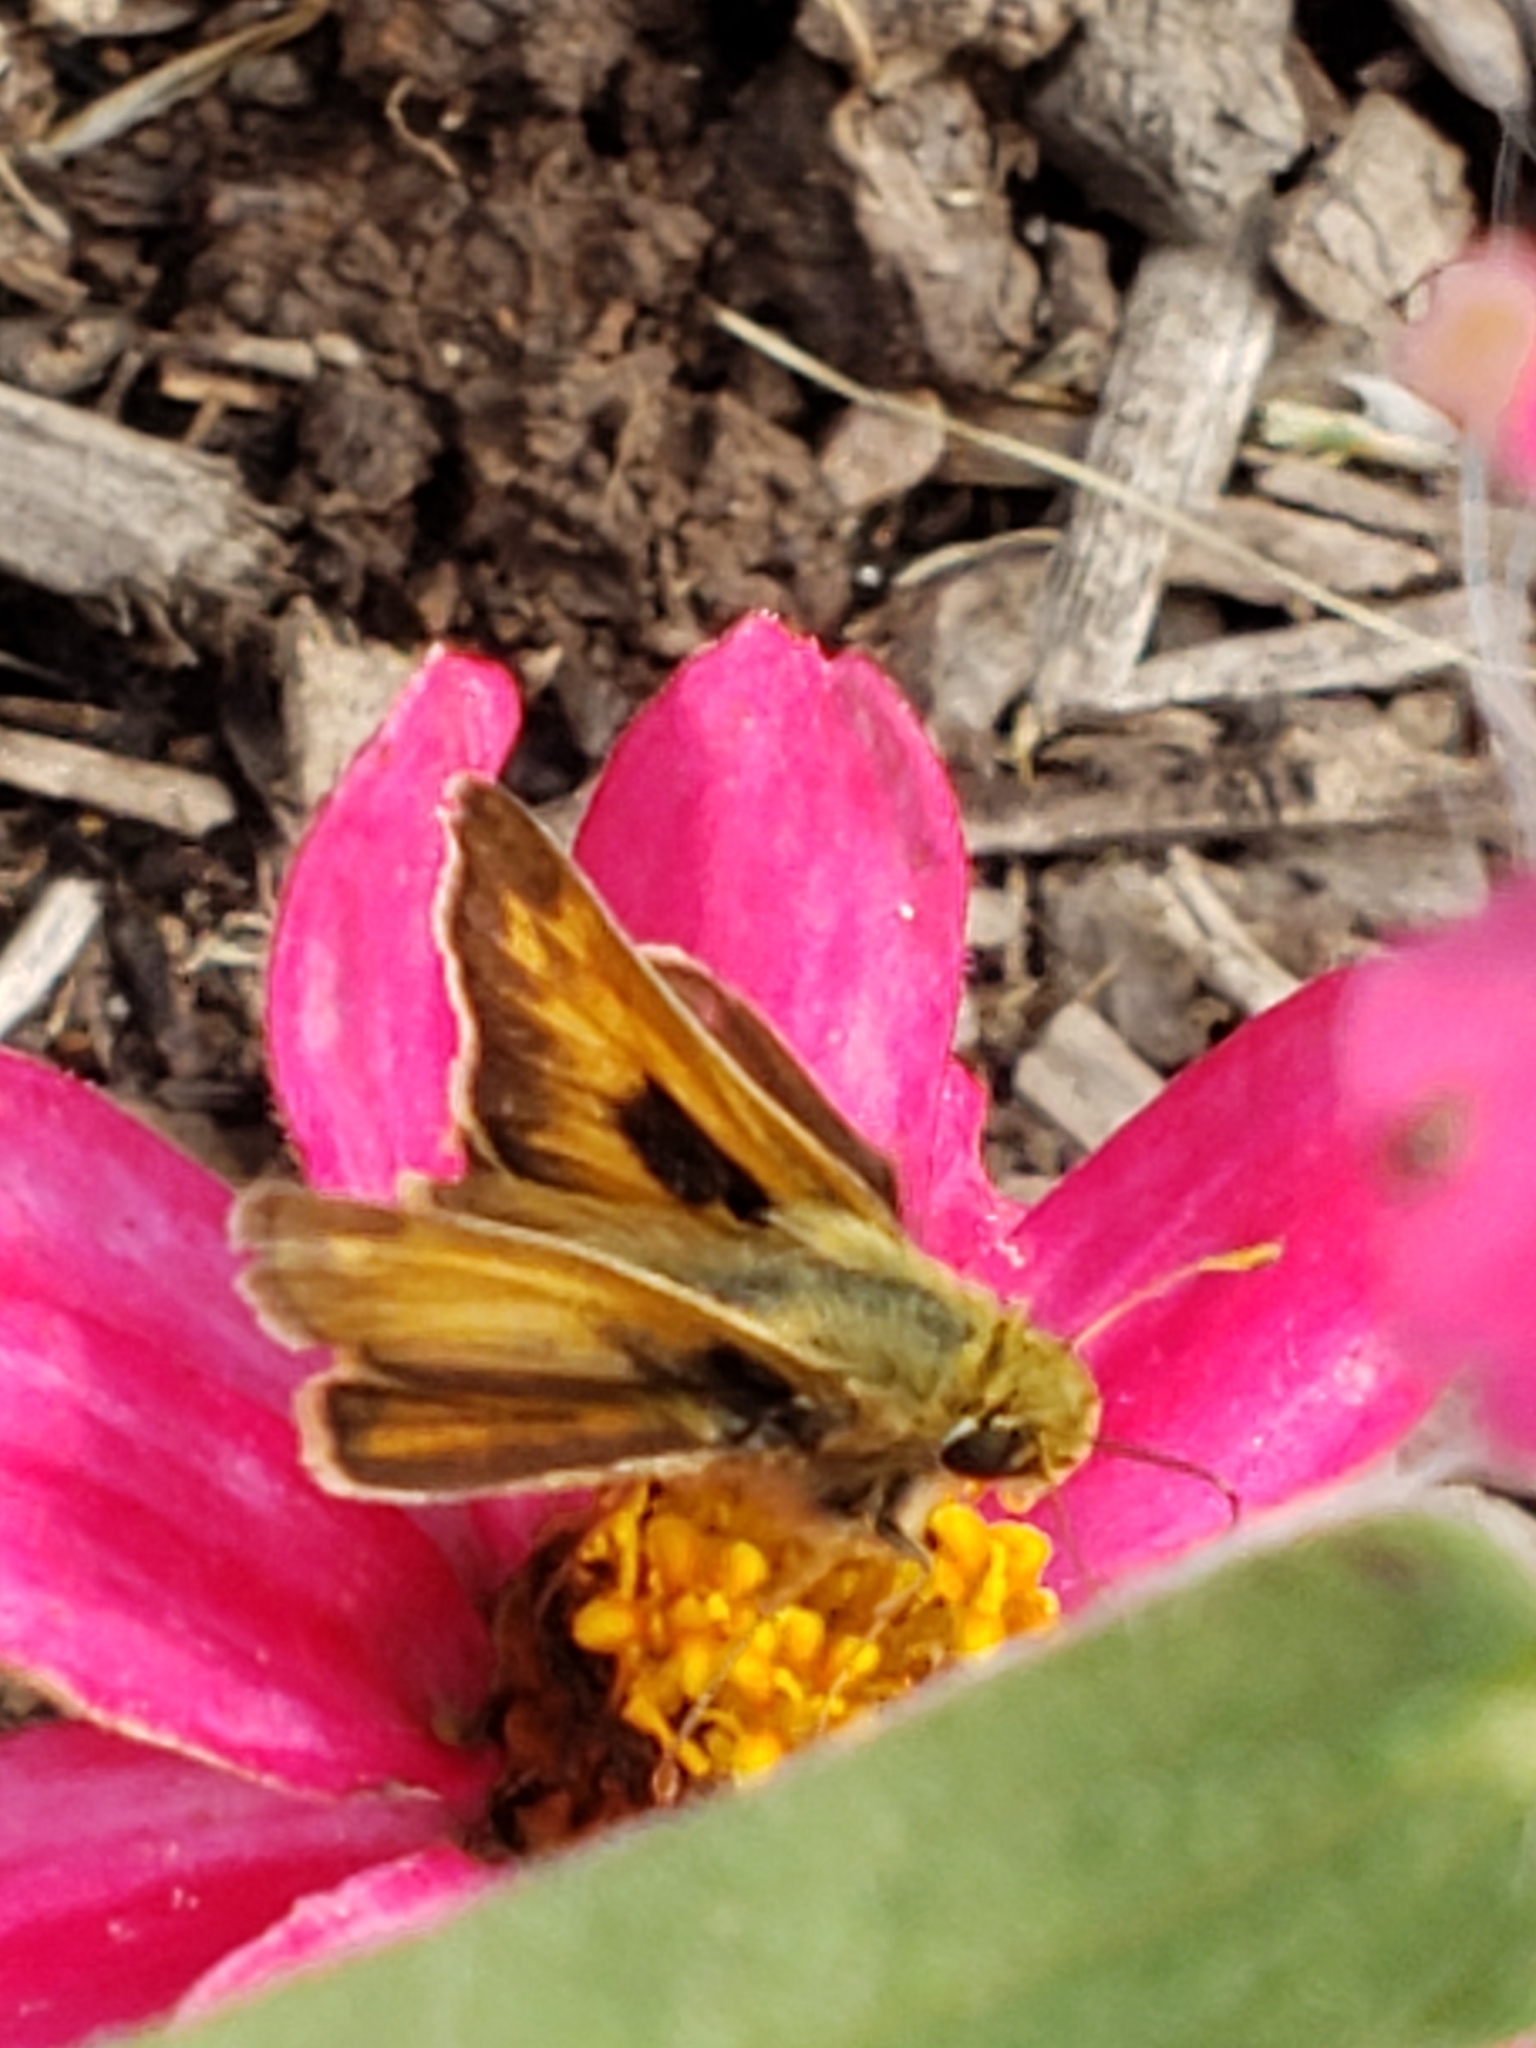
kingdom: Animalia
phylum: Arthropoda
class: Insecta
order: Lepidoptera
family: Hesperiidae
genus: Atalopedes
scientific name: Atalopedes
